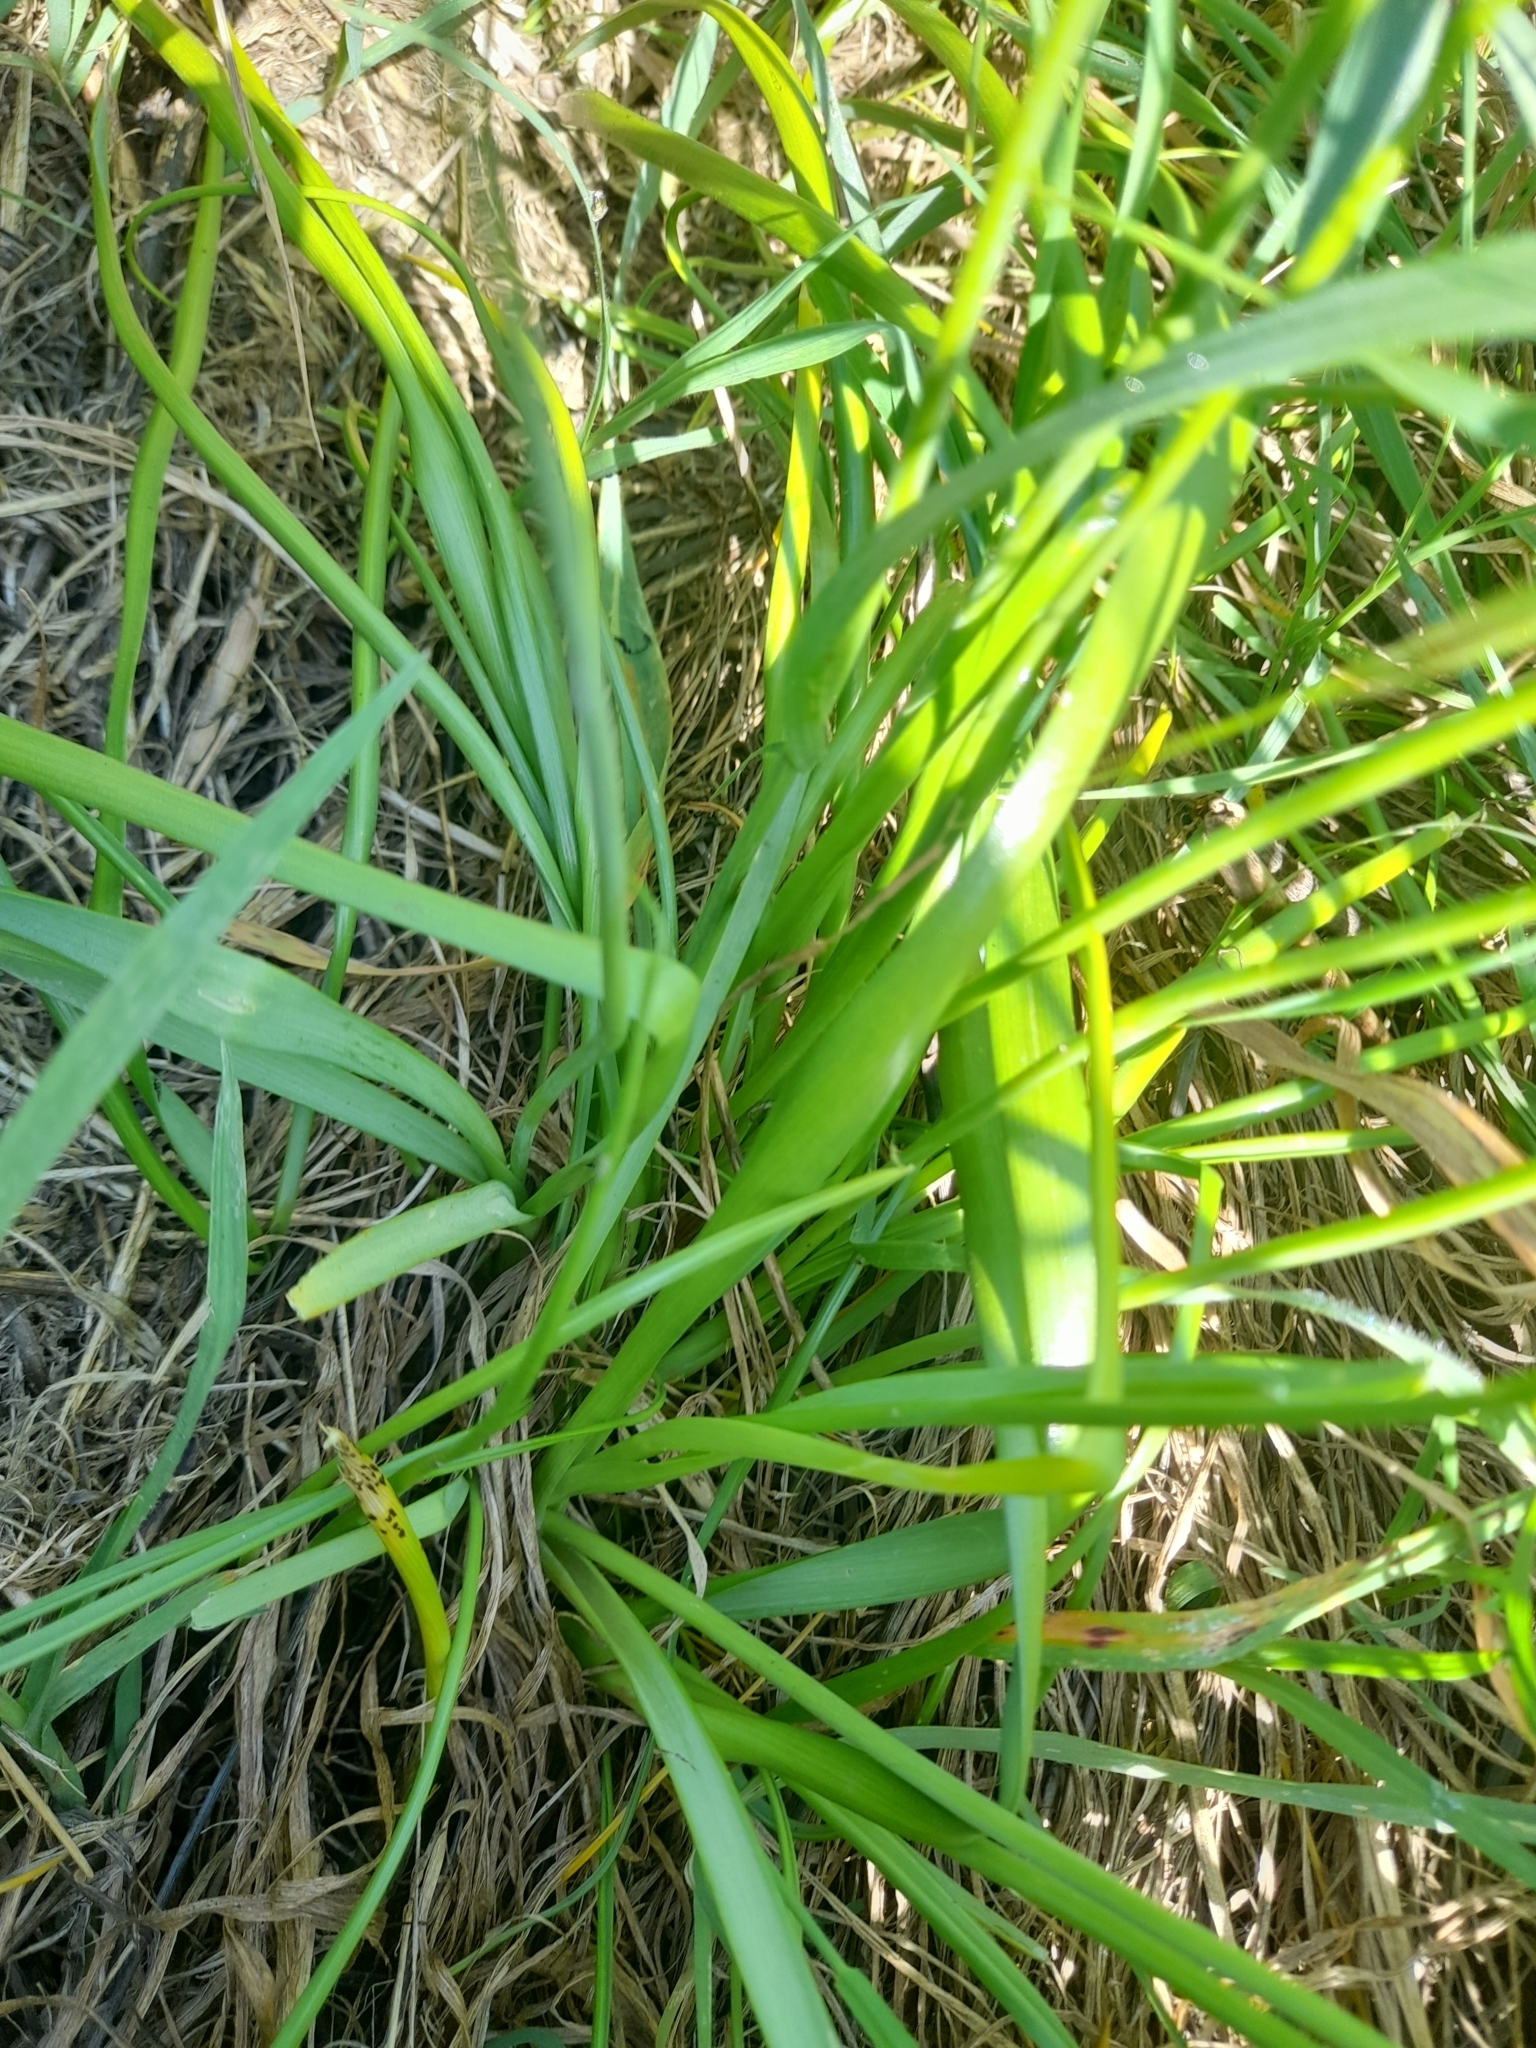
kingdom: Plantae
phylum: Tracheophyta
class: Liliopsida
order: Asparagales
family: Amaryllidaceae
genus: Allium
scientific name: Allium roseum
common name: Rosy garlic
